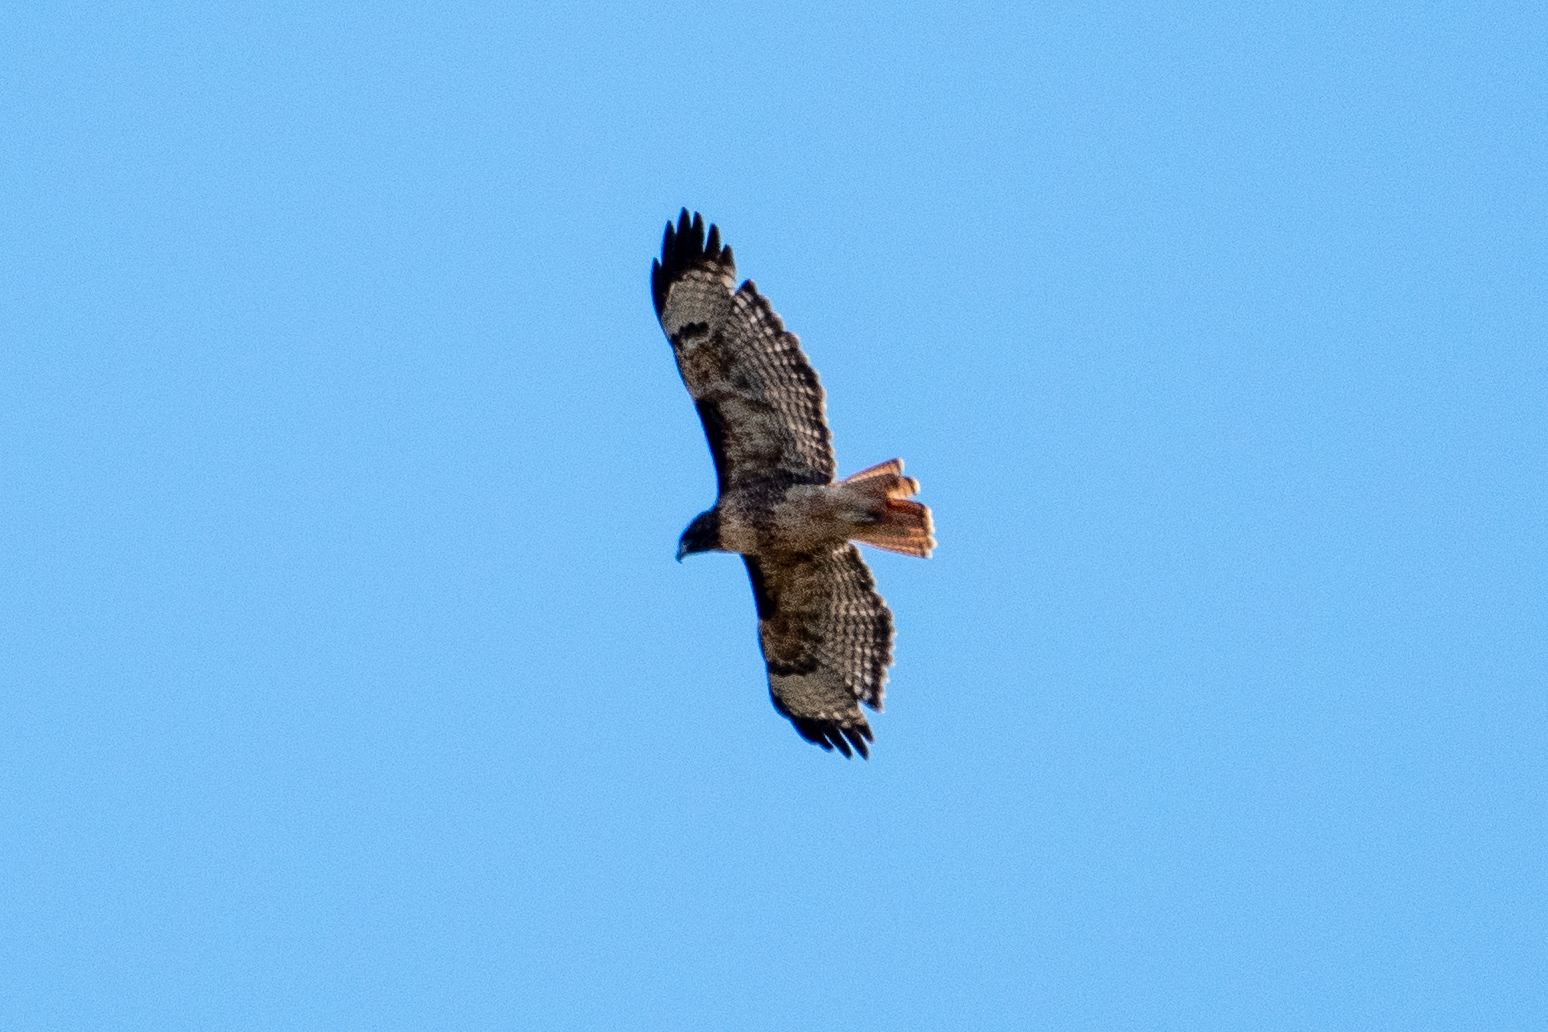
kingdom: Animalia
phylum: Chordata
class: Aves
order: Accipitriformes
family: Accipitridae
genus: Buteo
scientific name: Buteo jamaicensis
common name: Red-tailed hawk
